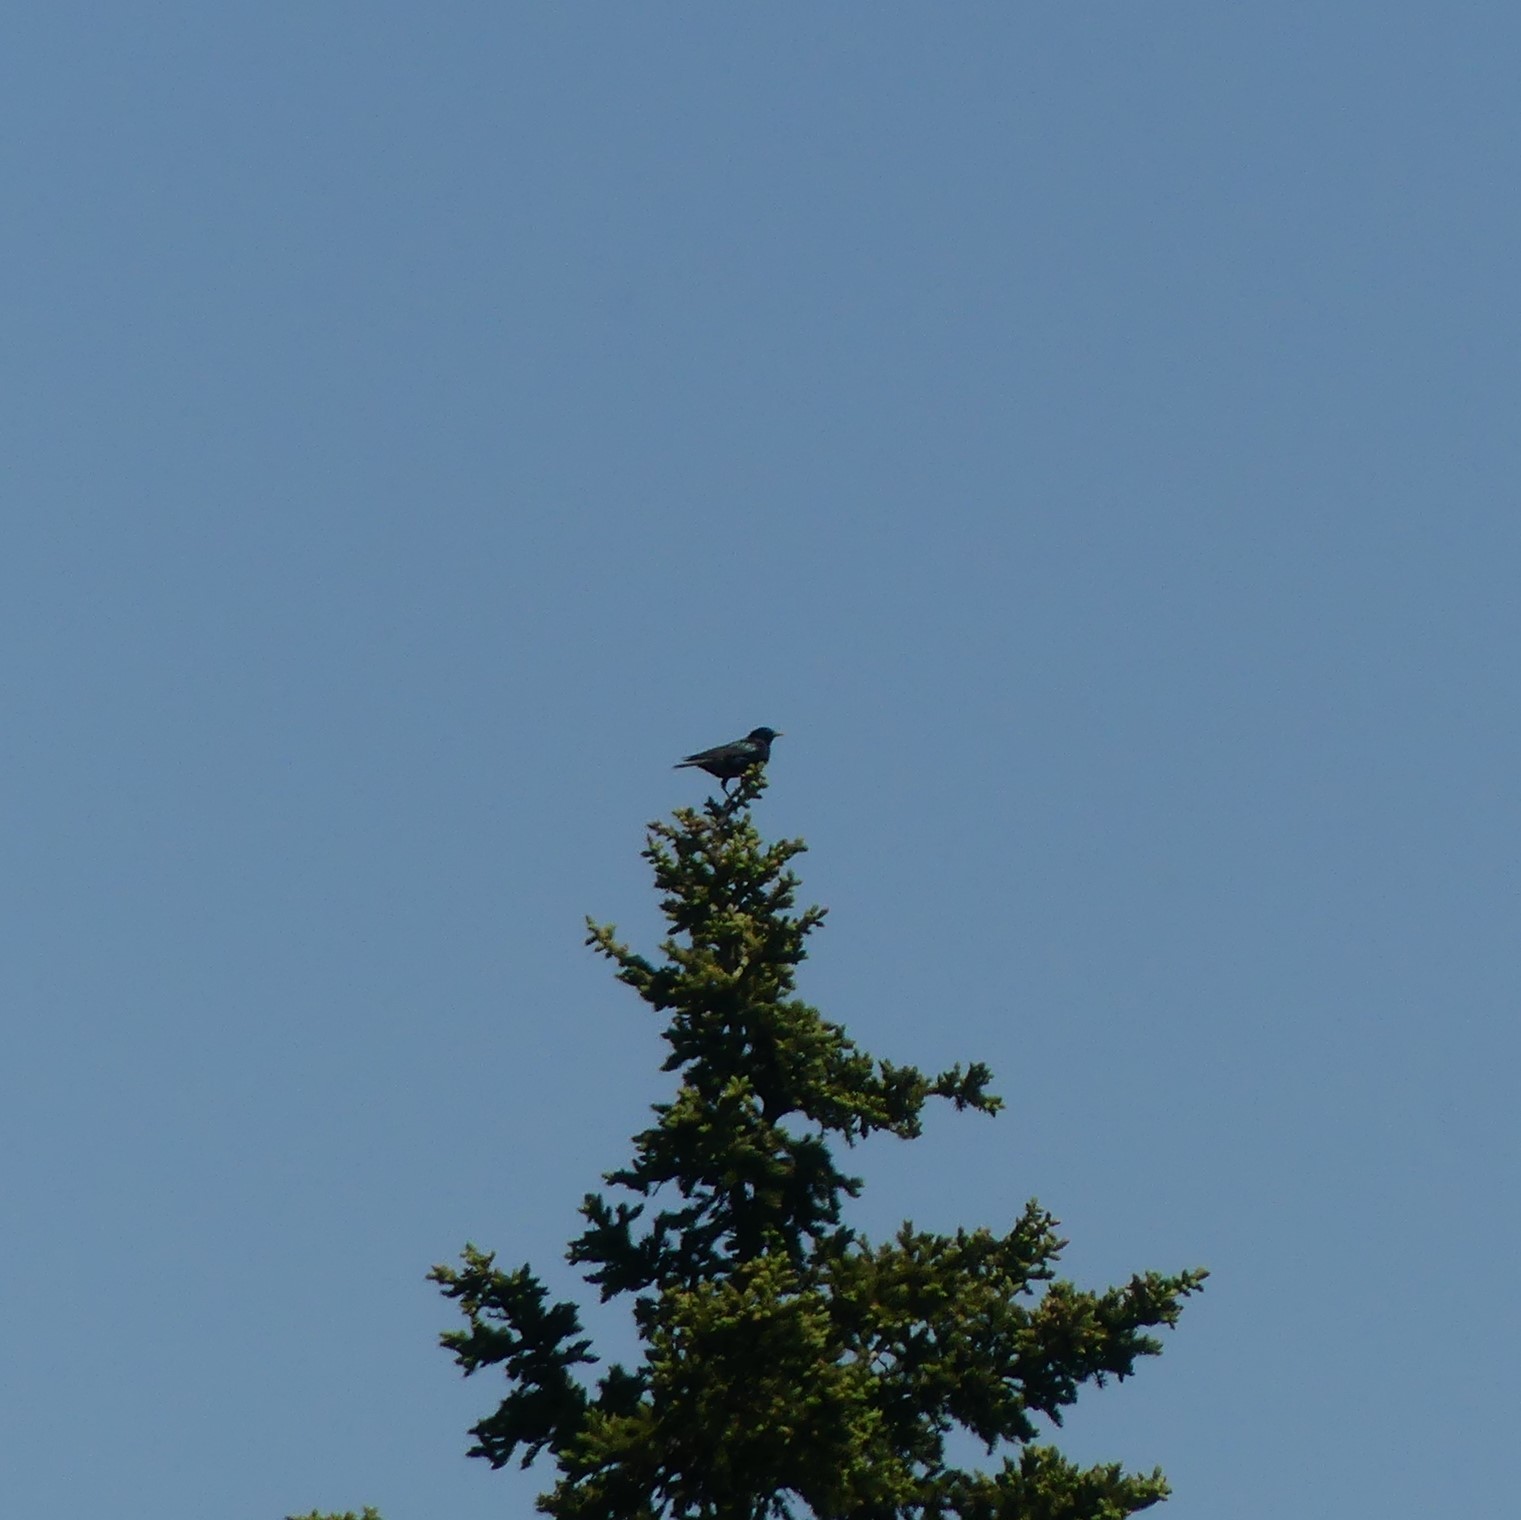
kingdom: Animalia
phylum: Chordata
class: Aves
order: Passeriformes
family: Sturnidae
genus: Sturnus
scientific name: Sturnus vulgaris
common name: Common starling
